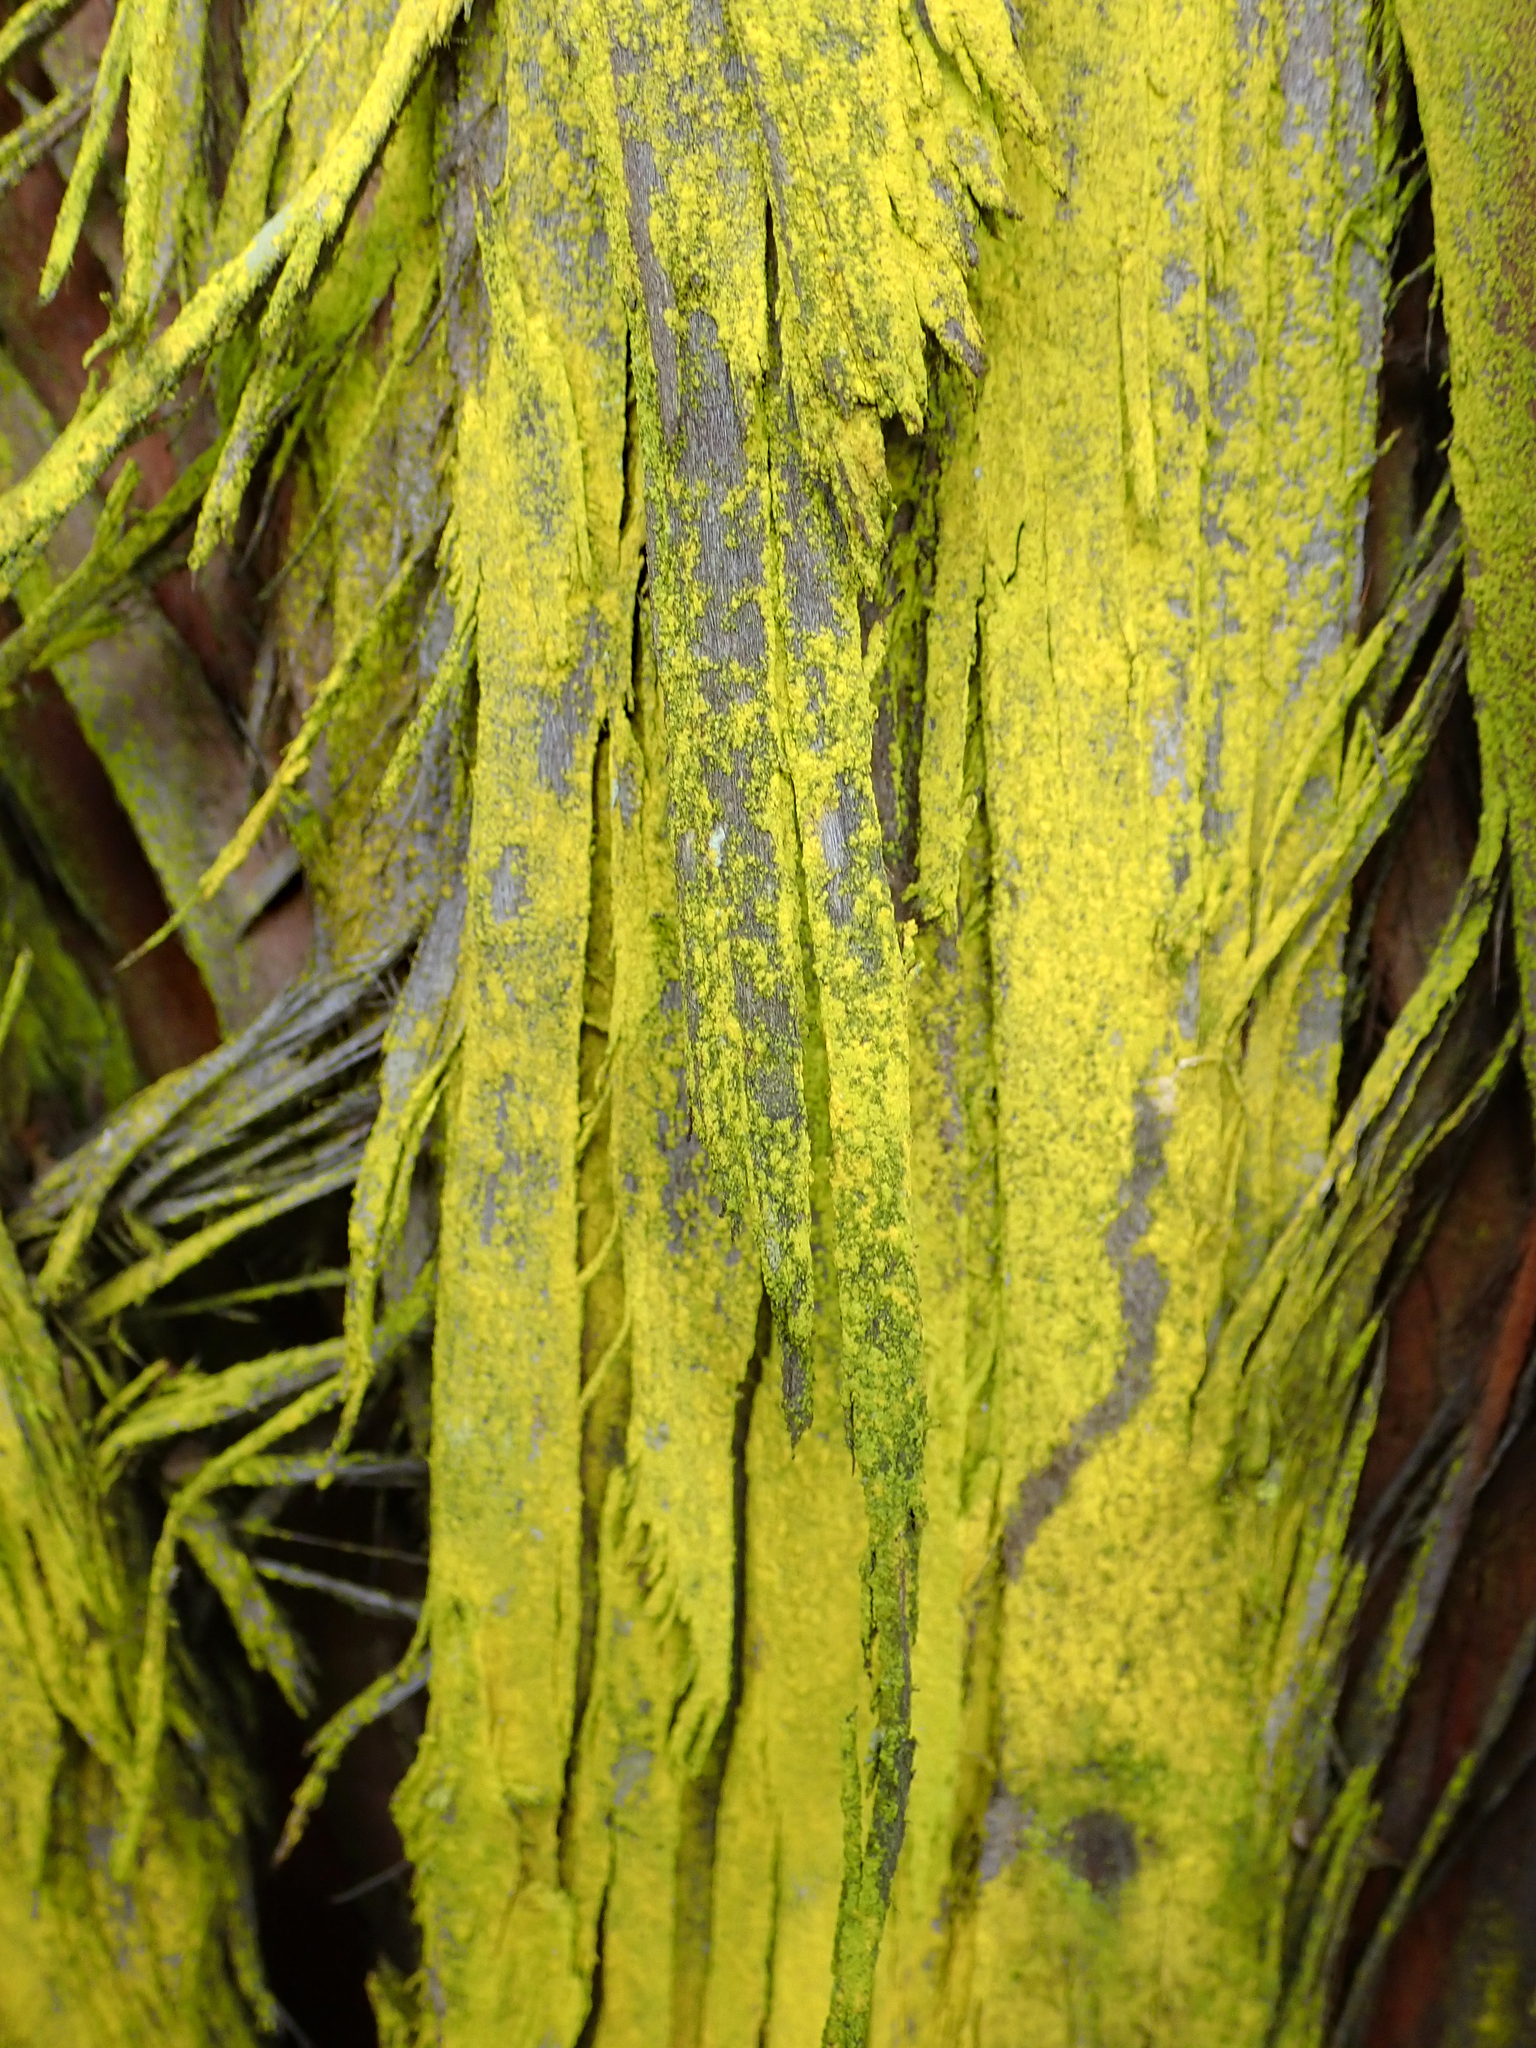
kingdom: Fungi
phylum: Ascomycota
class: Arthoniomycetes
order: Arthoniales
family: Chrysotrichaceae
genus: Chrysothrix
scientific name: Chrysothrix xanthina
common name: Common gold-dust
